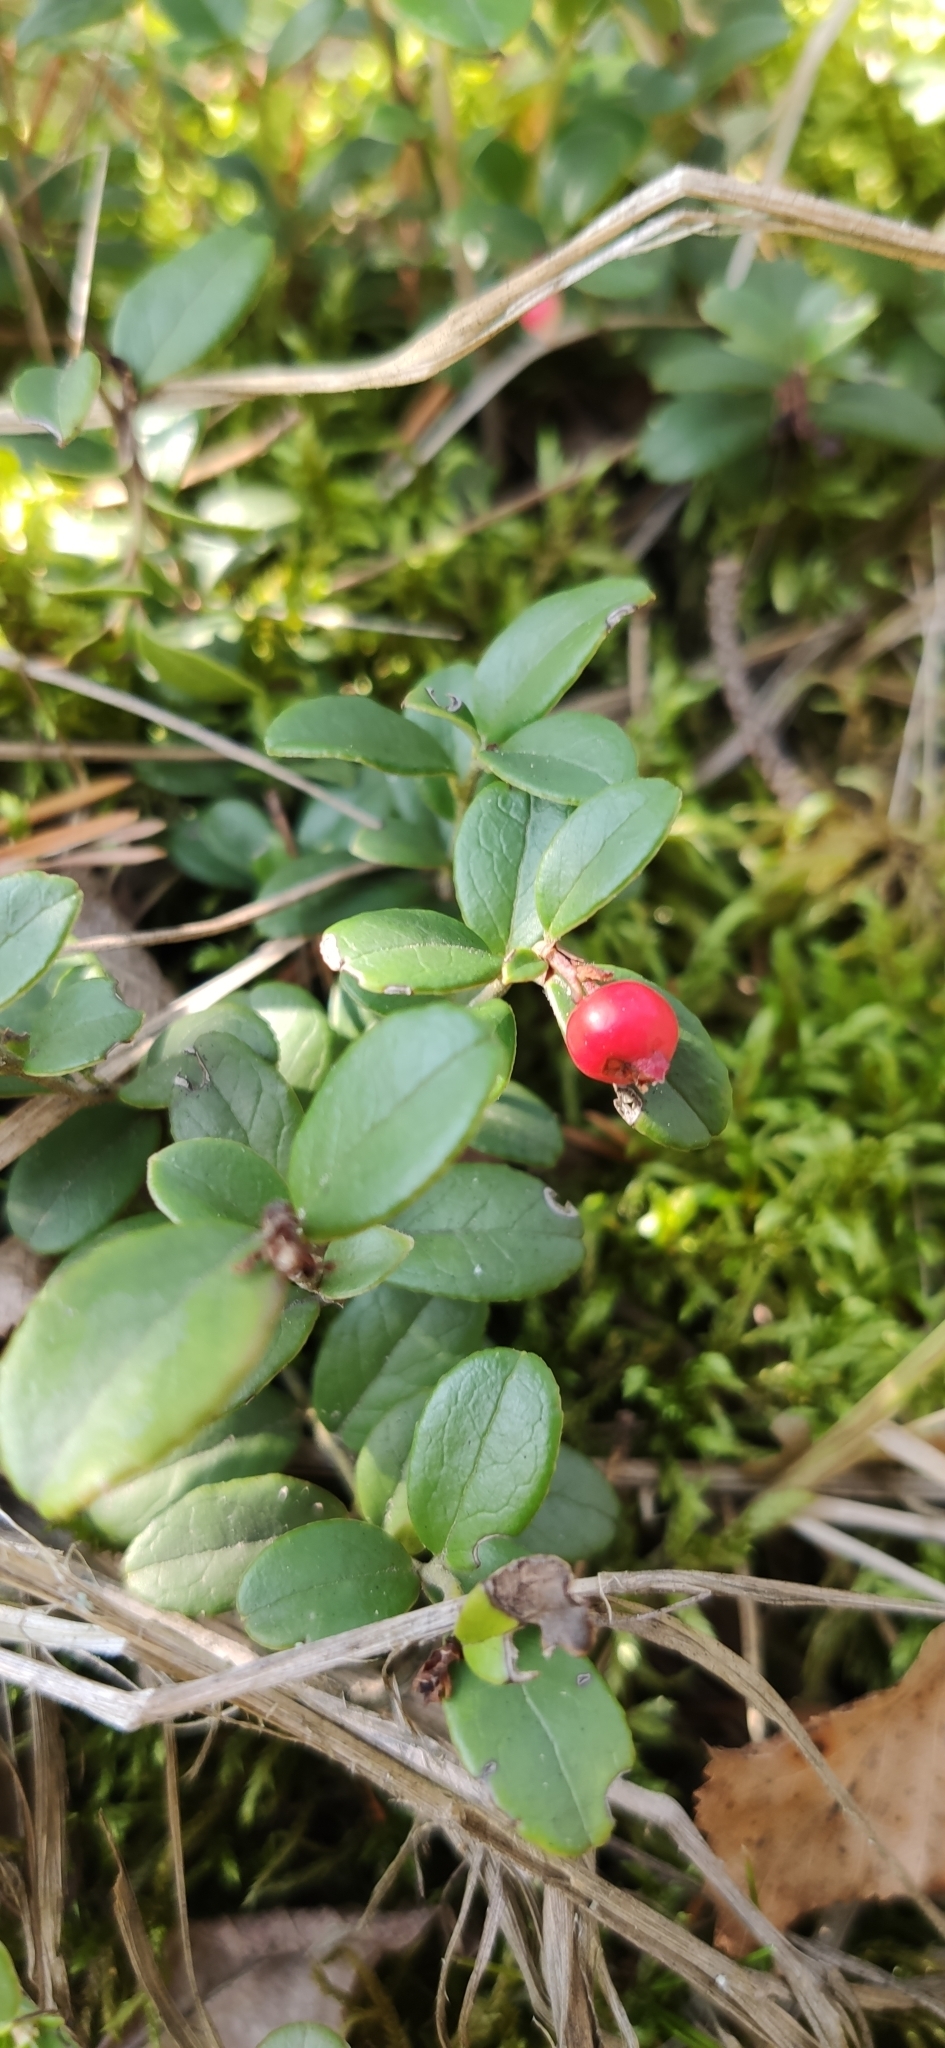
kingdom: Plantae
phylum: Tracheophyta
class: Magnoliopsida
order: Ericales
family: Ericaceae
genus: Vaccinium
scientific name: Vaccinium vitis-idaea
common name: Cowberry
